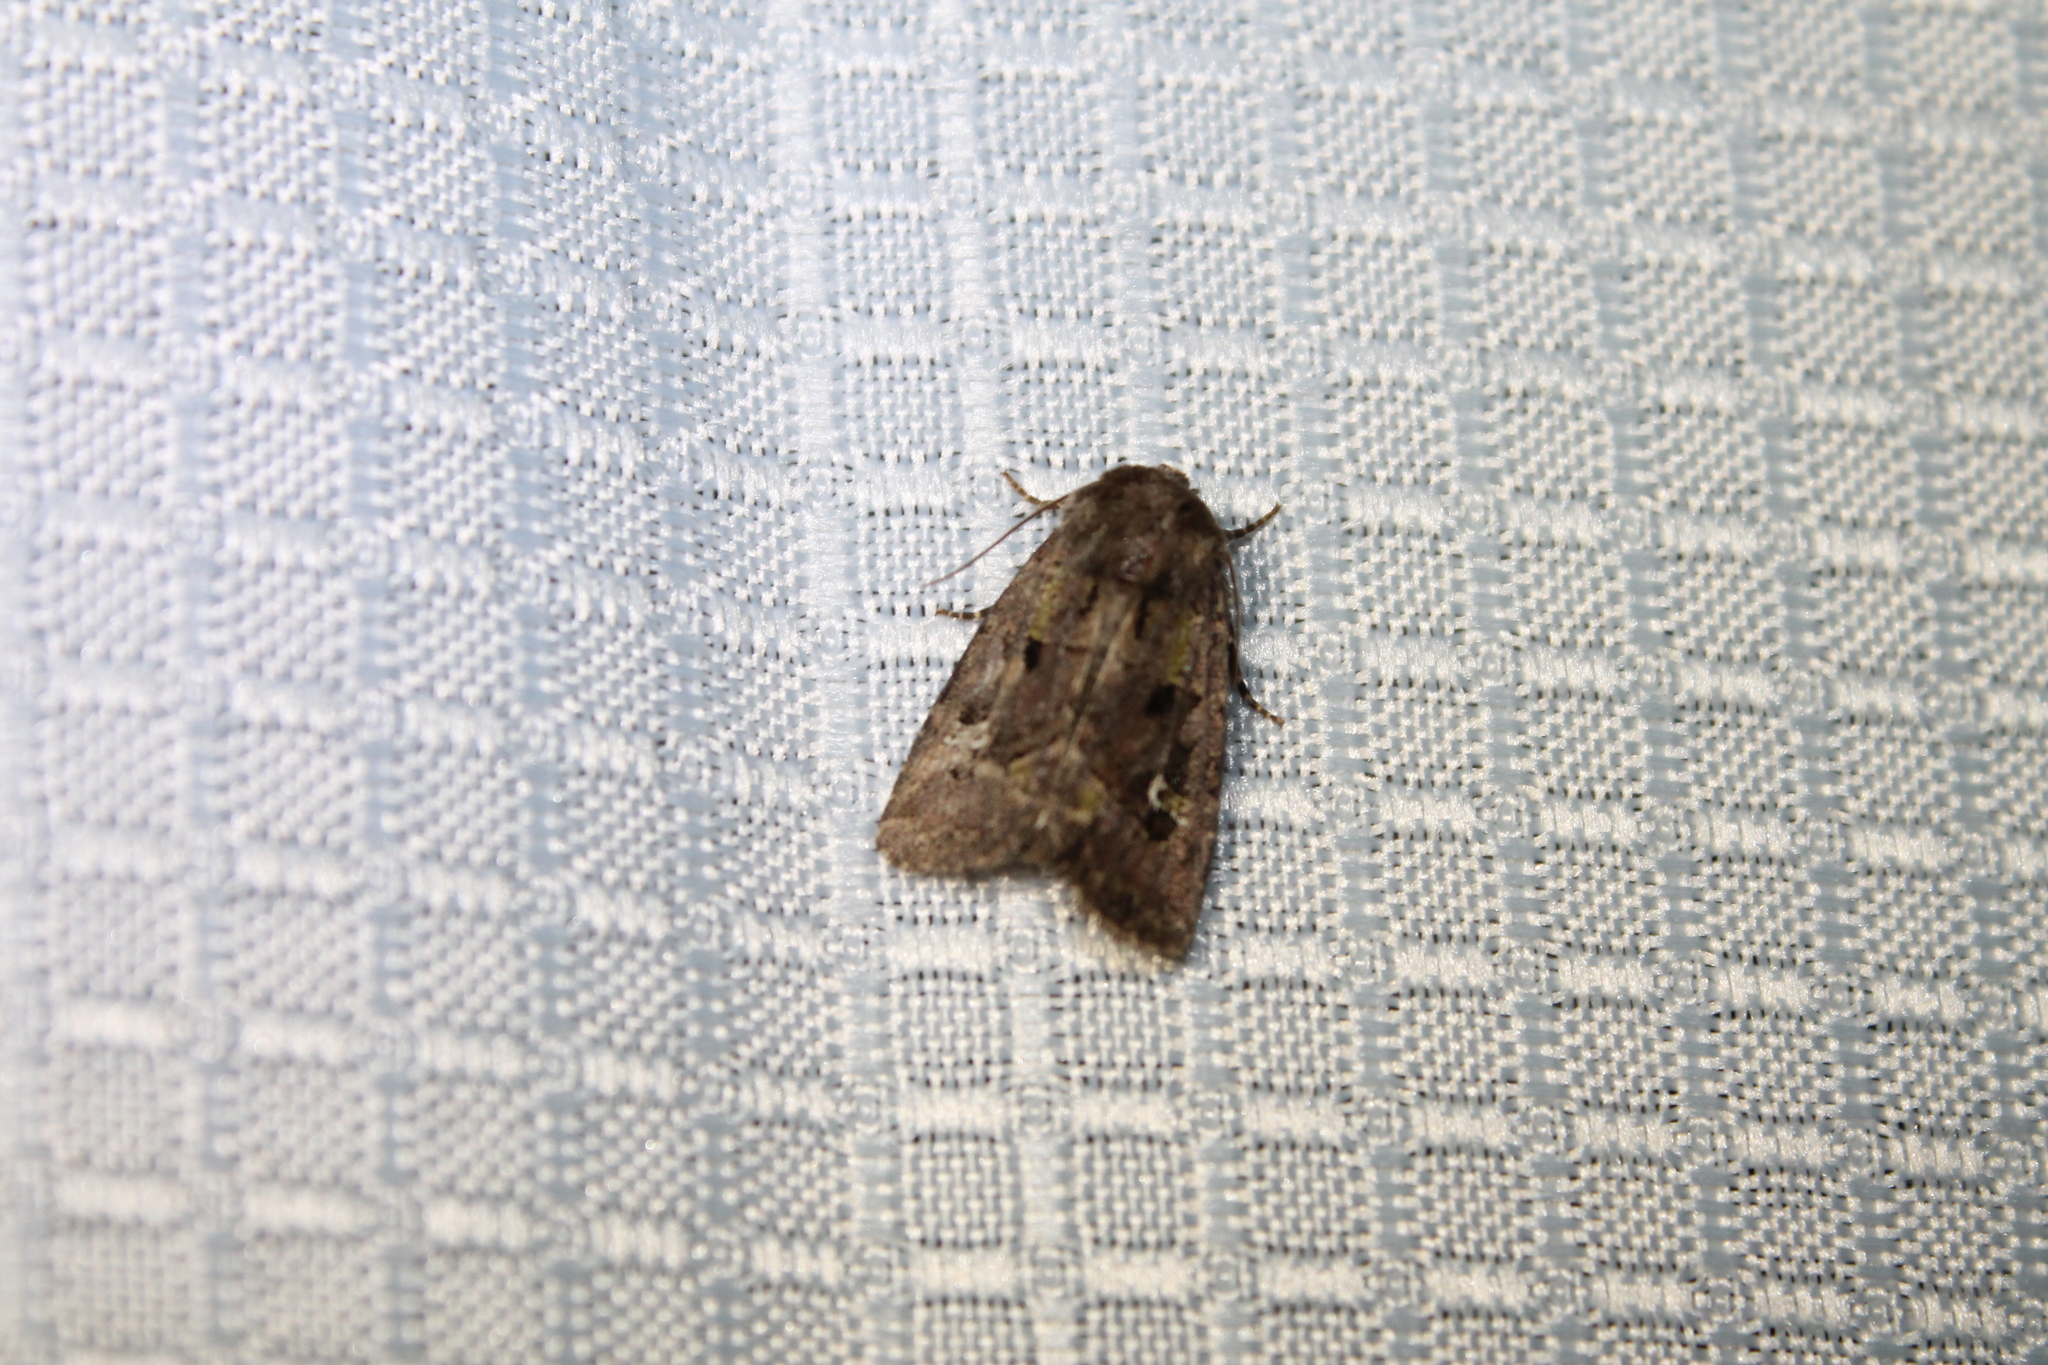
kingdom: Animalia
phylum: Arthropoda
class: Insecta
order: Lepidoptera
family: Noctuidae
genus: Lacinipolia
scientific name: Lacinipolia renigera
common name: Kidney-spotted minor
